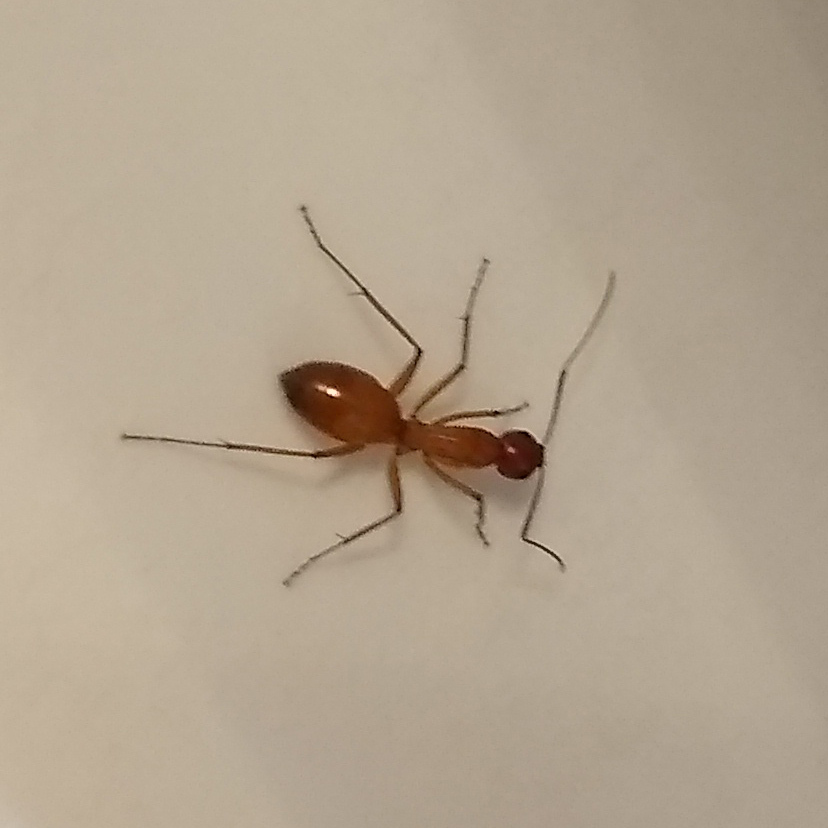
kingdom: Animalia
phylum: Arthropoda
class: Insecta
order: Hymenoptera
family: Formicidae
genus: Camponotus
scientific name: Camponotus castaneus
